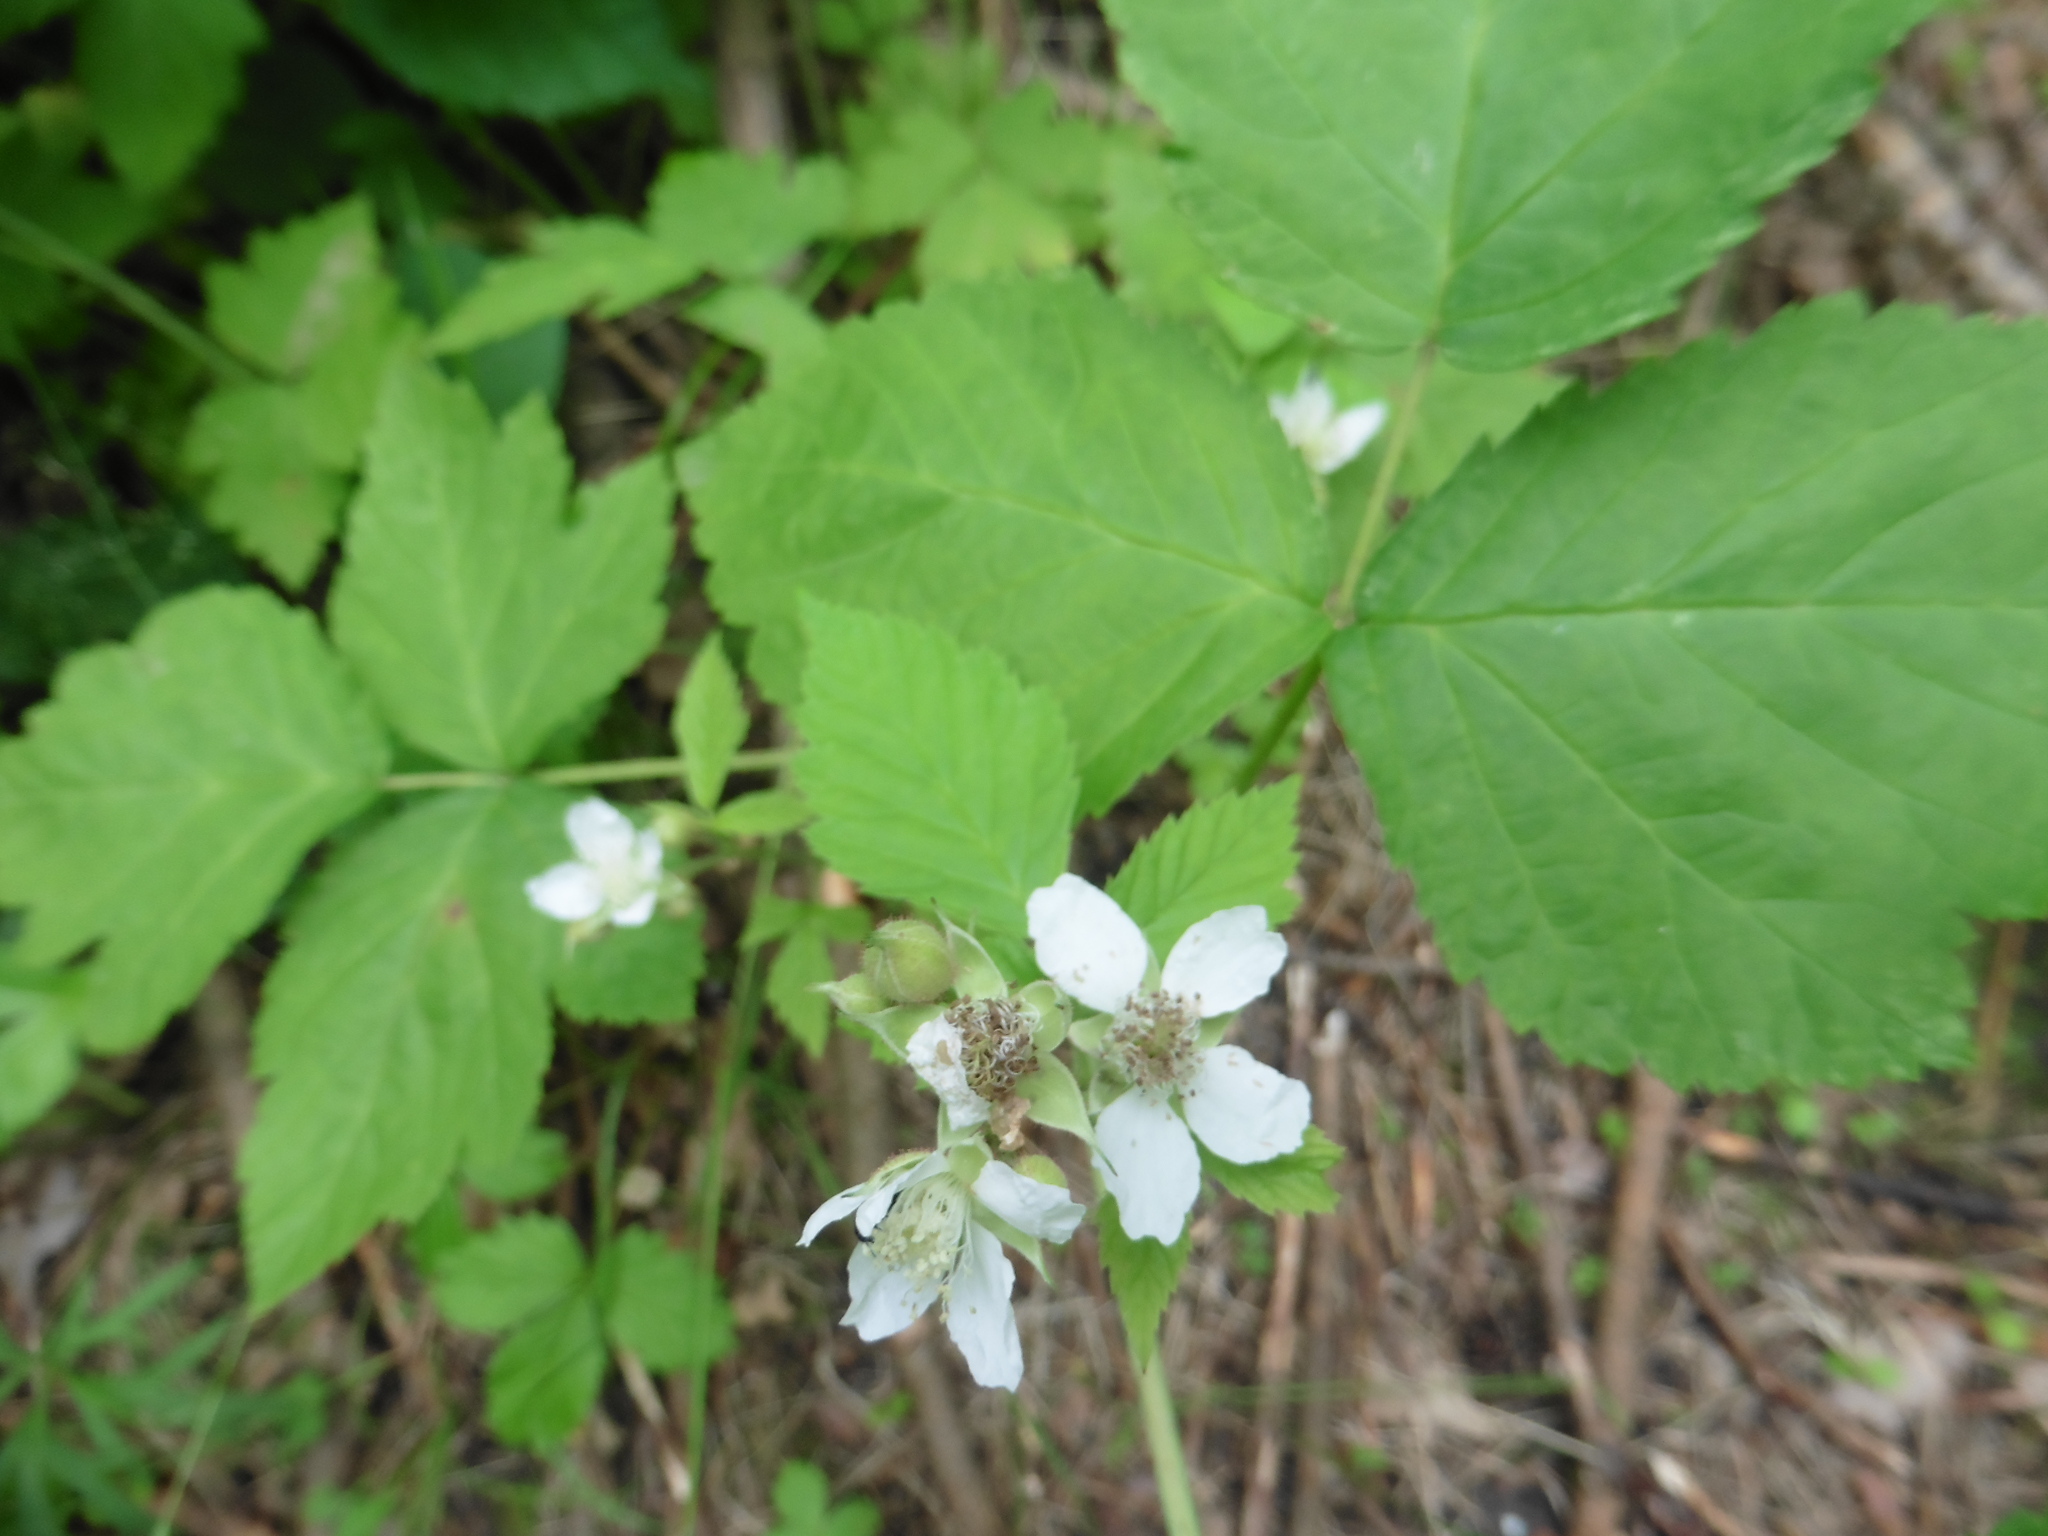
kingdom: Plantae
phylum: Tracheophyta
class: Magnoliopsida
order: Rosales
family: Rosaceae
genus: Rubus
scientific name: Rubus caesius
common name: Dewberry
